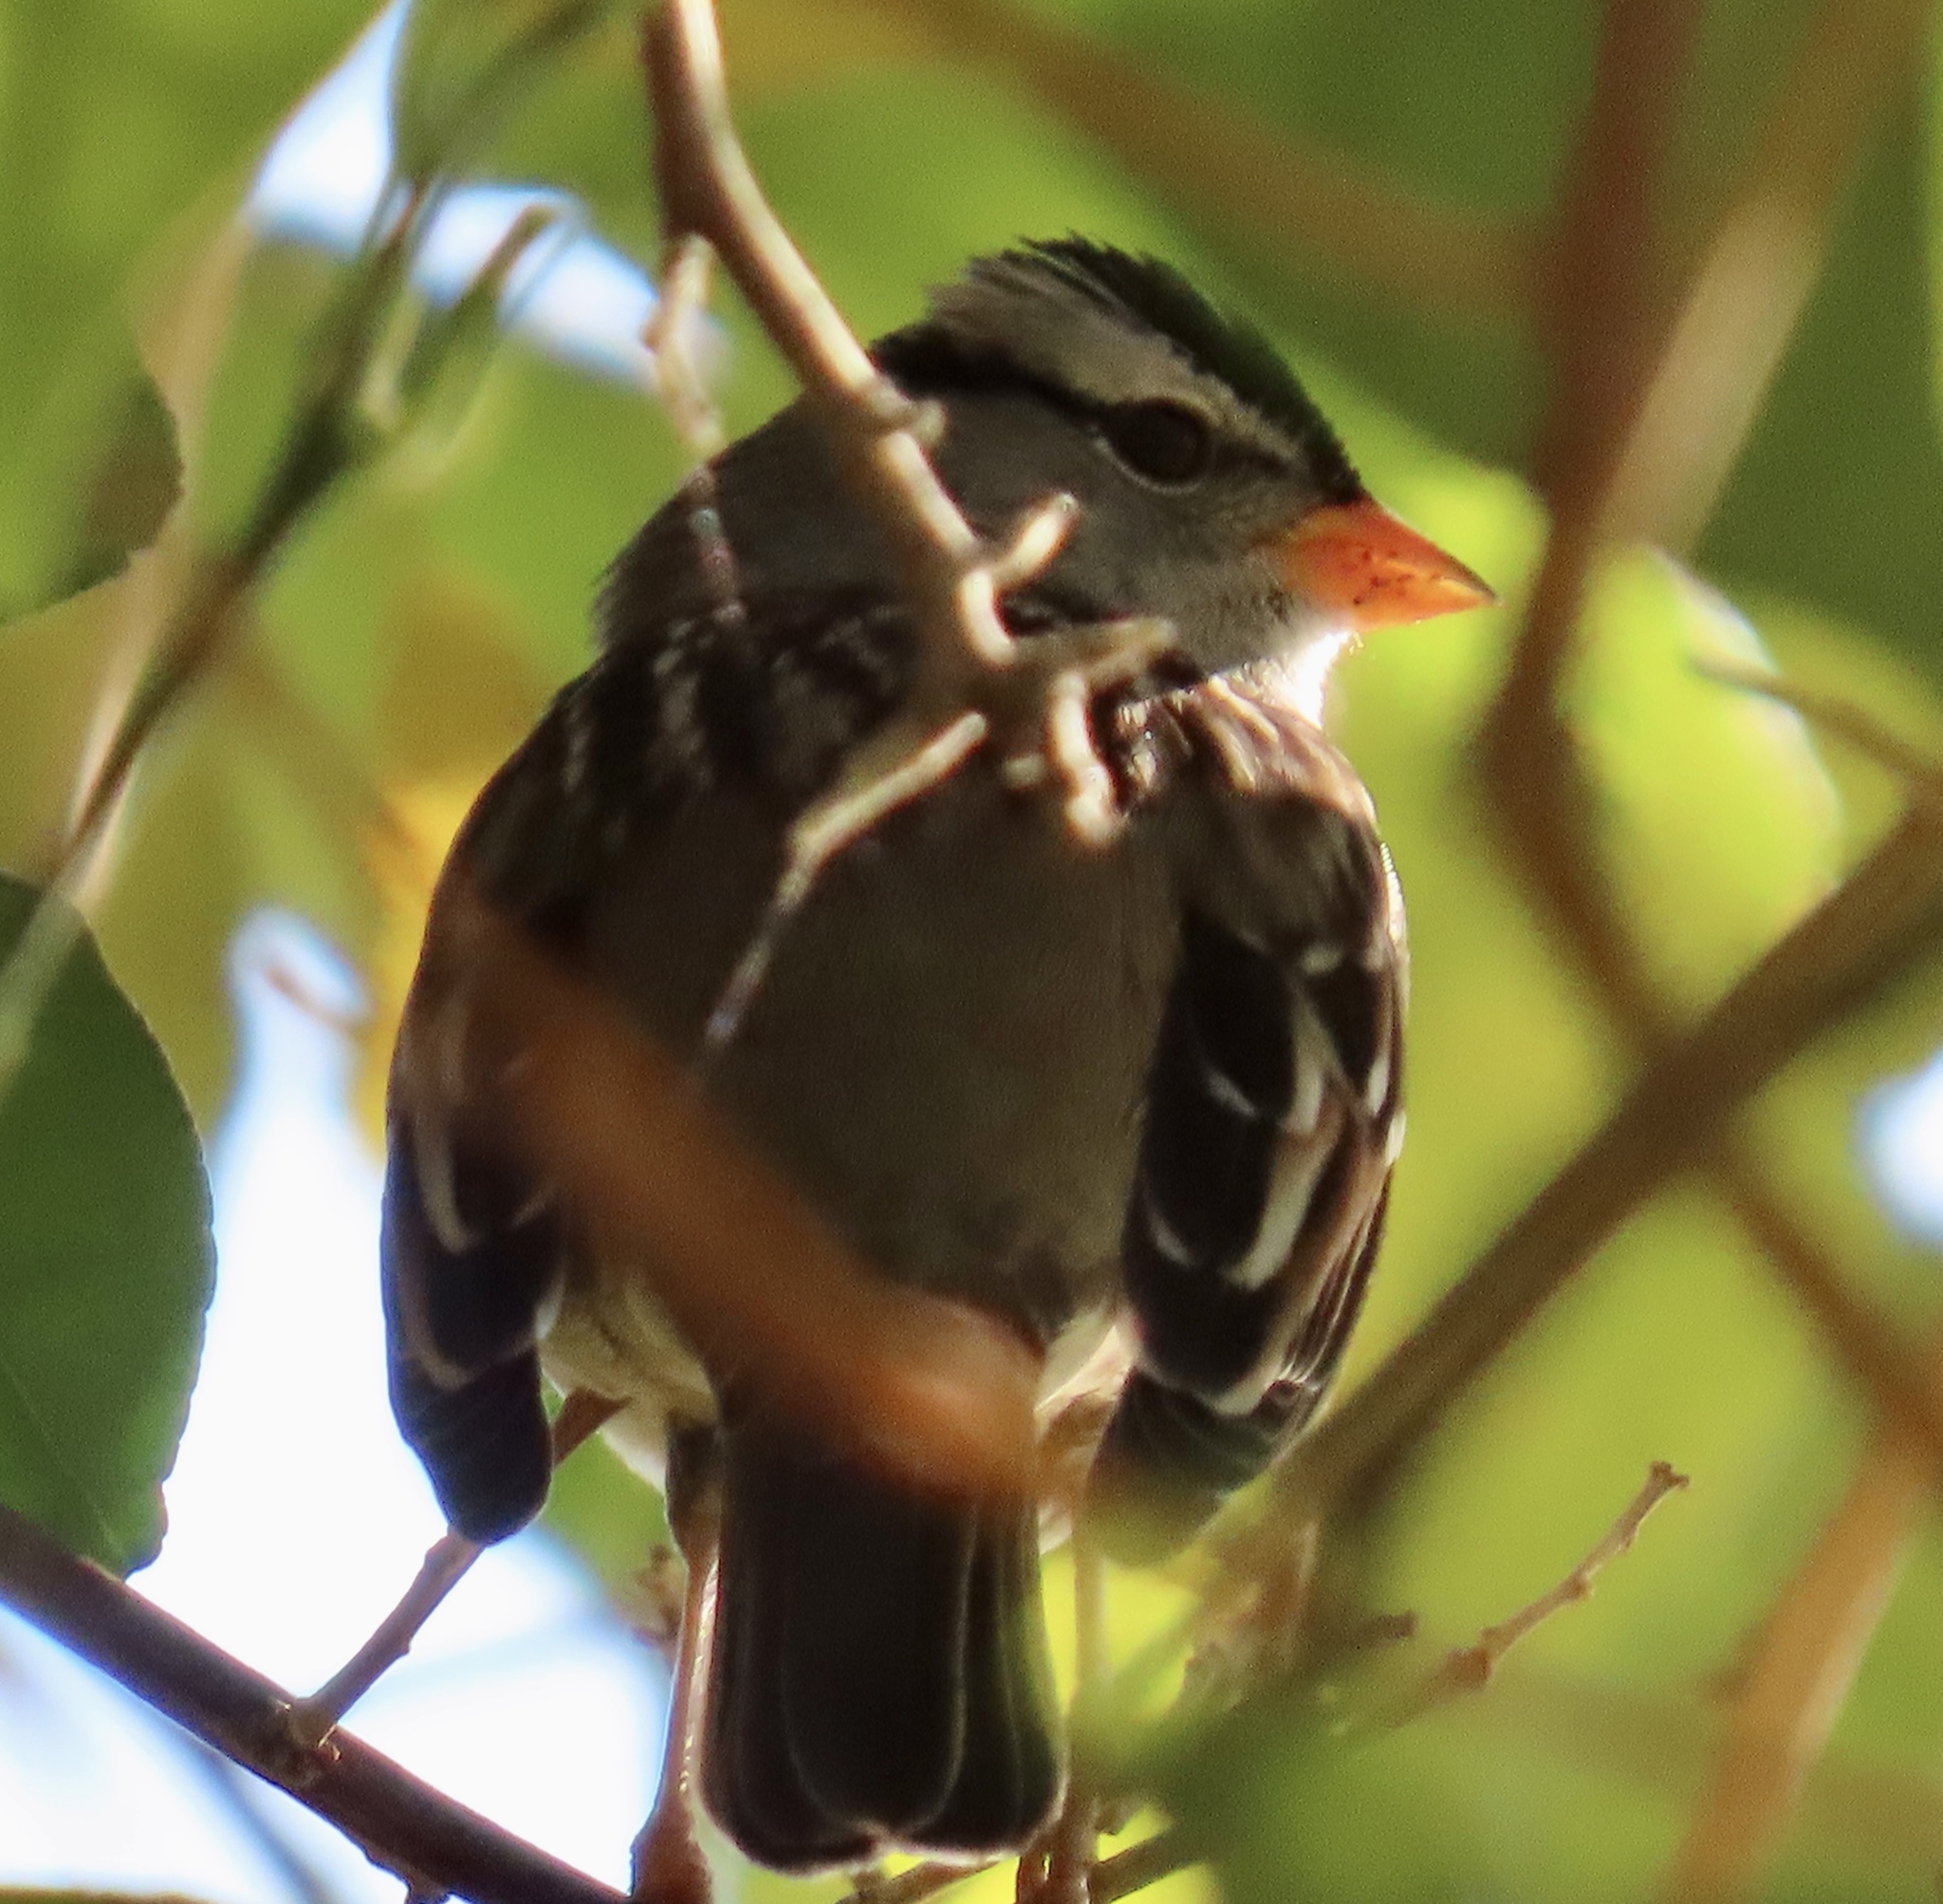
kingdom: Animalia
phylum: Chordata
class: Aves
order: Passeriformes
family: Passerellidae
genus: Zonotrichia
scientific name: Zonotrichia leucophrys
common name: White-crowned sparrow
